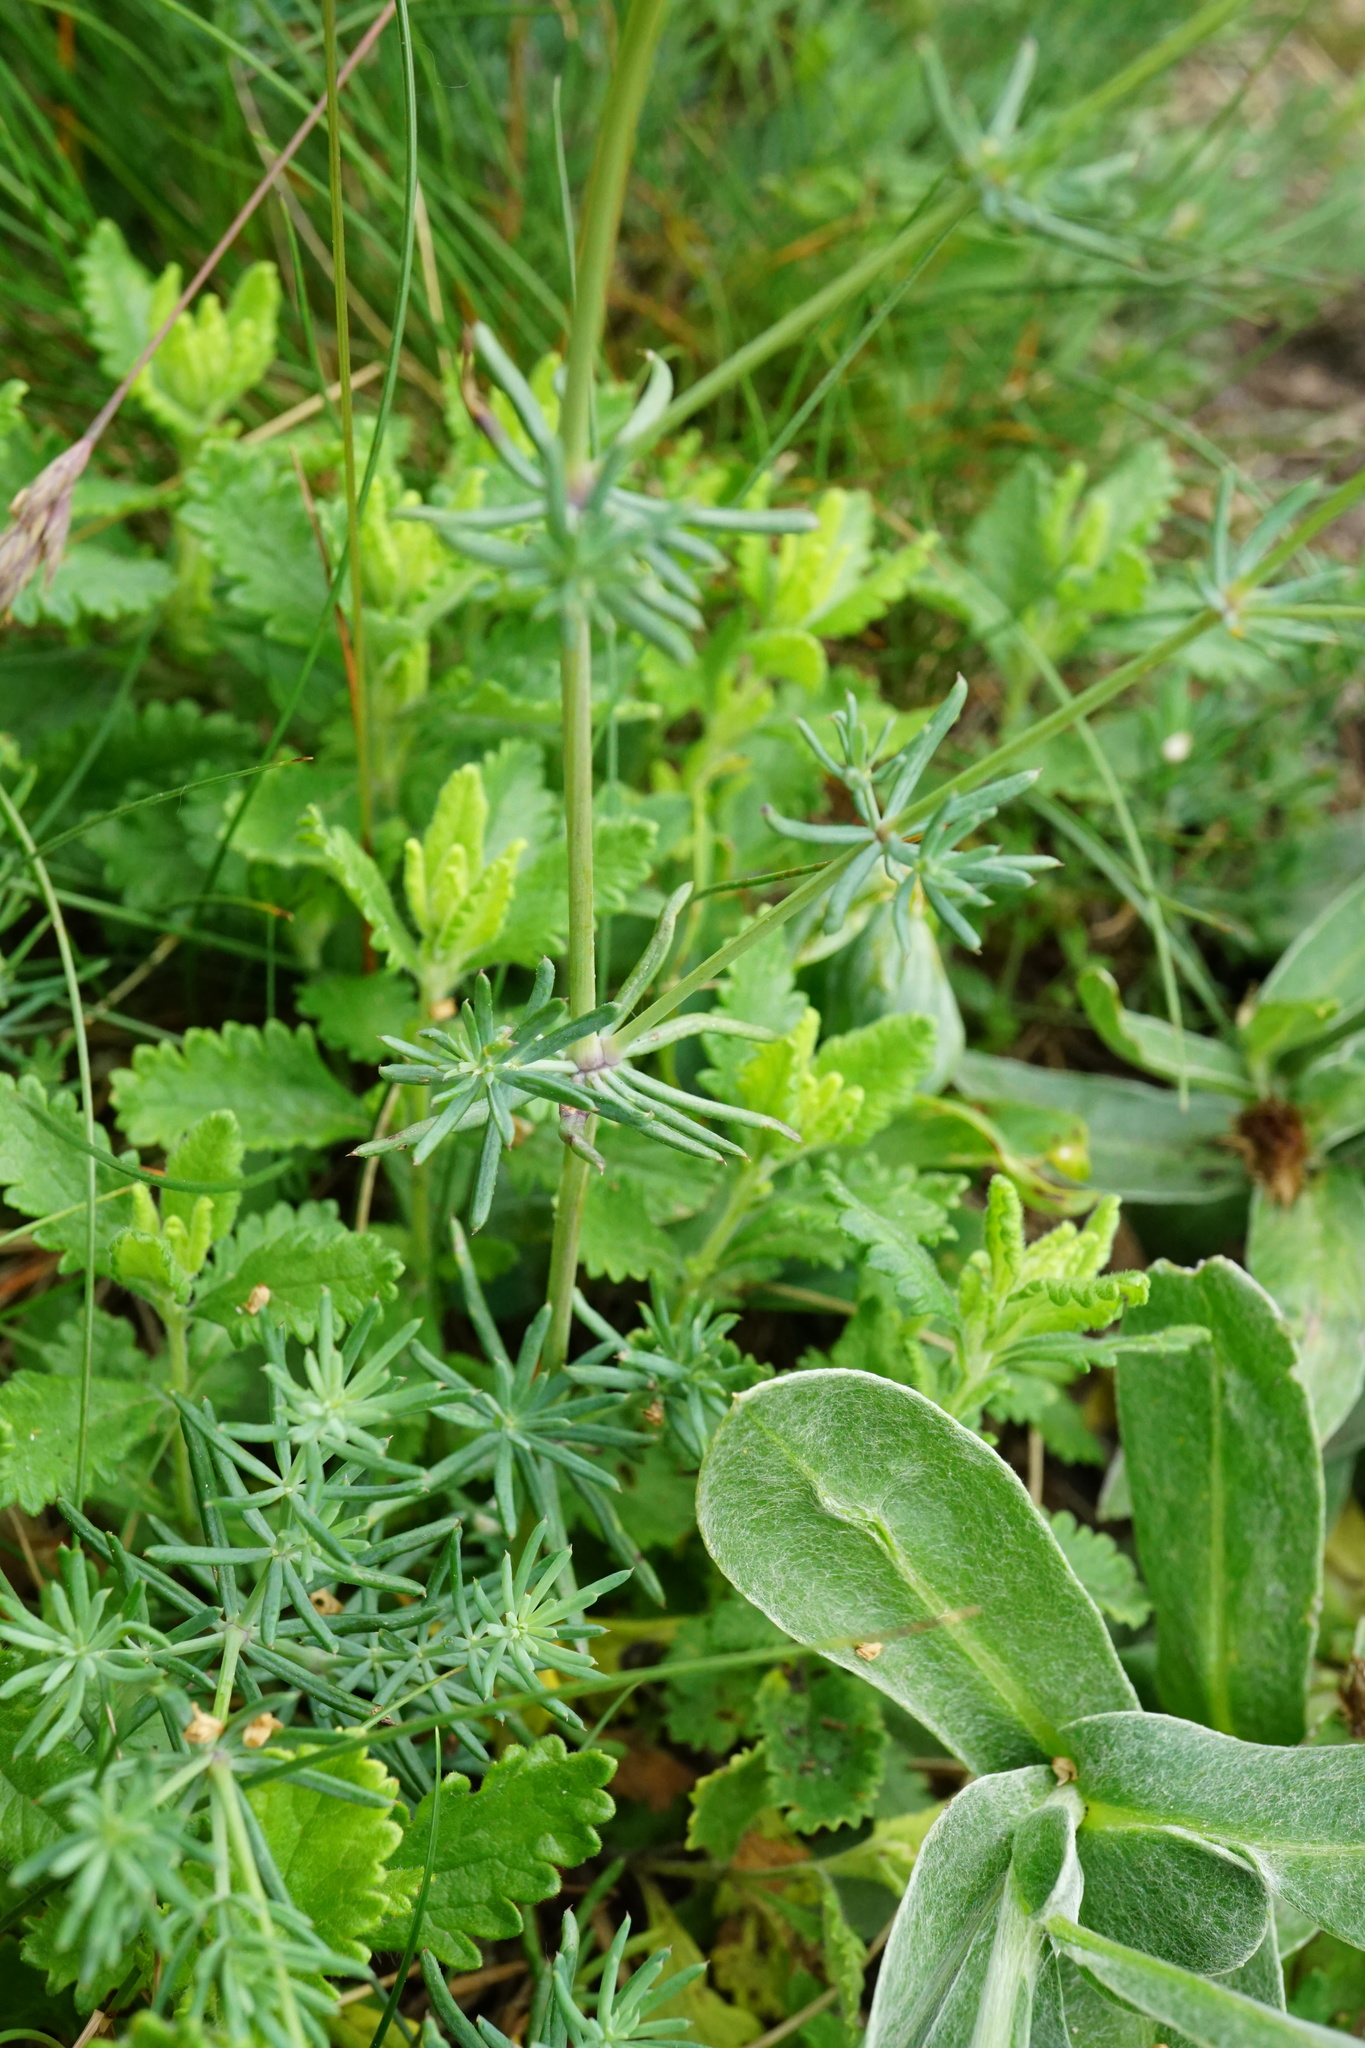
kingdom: Plantae
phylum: Tracheophyta
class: Magnoliopsida
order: Gentianales
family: Rubiaceae
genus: Galium
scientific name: Galium glaucum
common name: Waxy bedstraw
